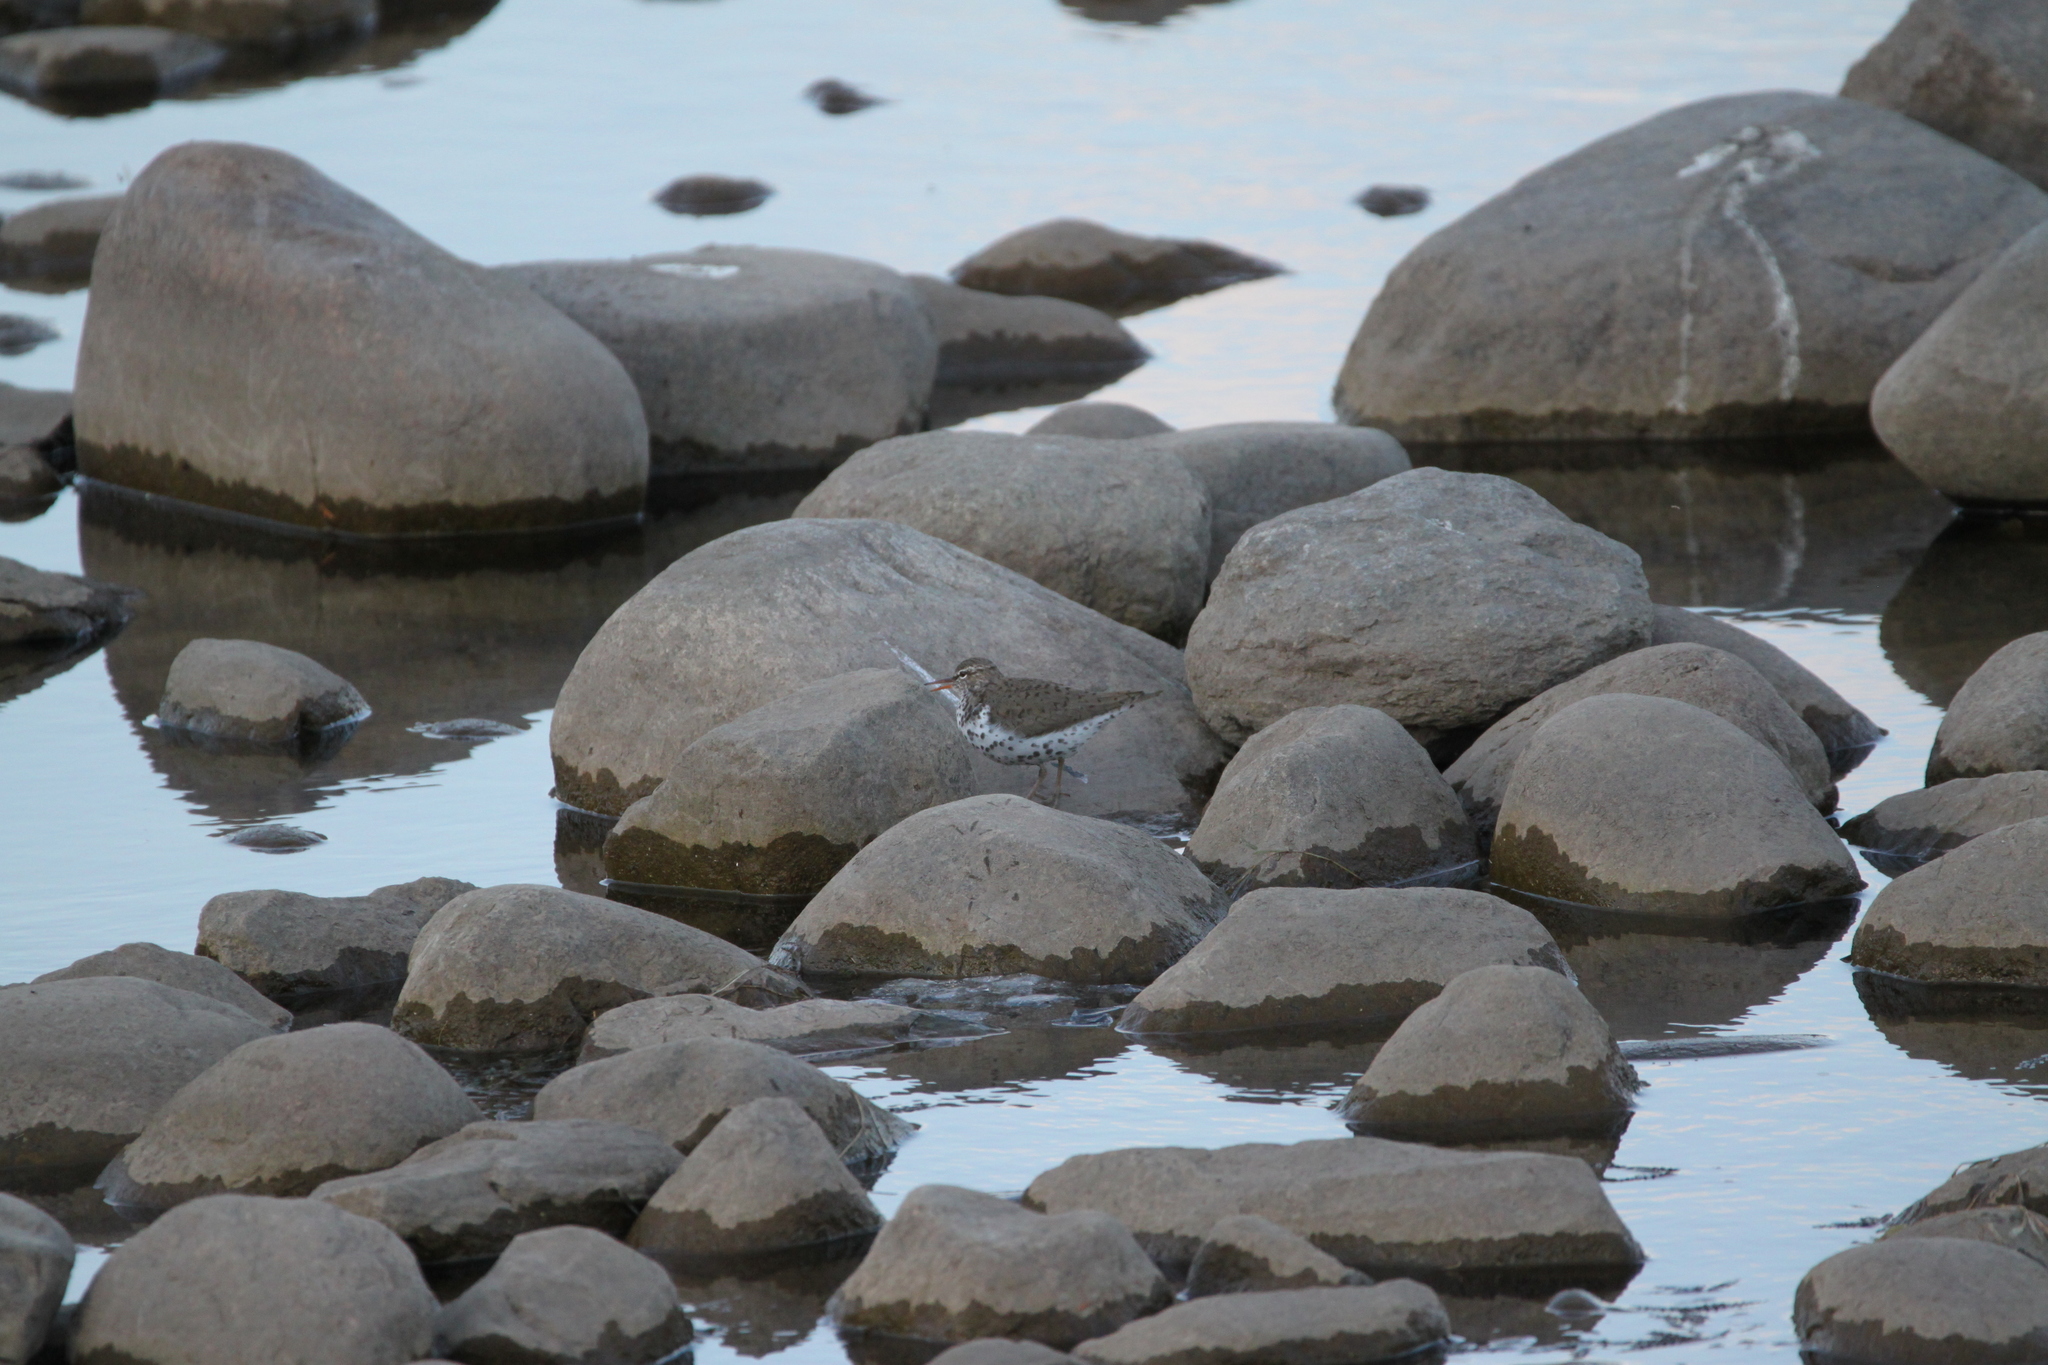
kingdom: Animalia
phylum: Chordata
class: Aves
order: Charadriiformes
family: Scolopacidae
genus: Actitis
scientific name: Actitis macularius
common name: Spotted sandpiper
